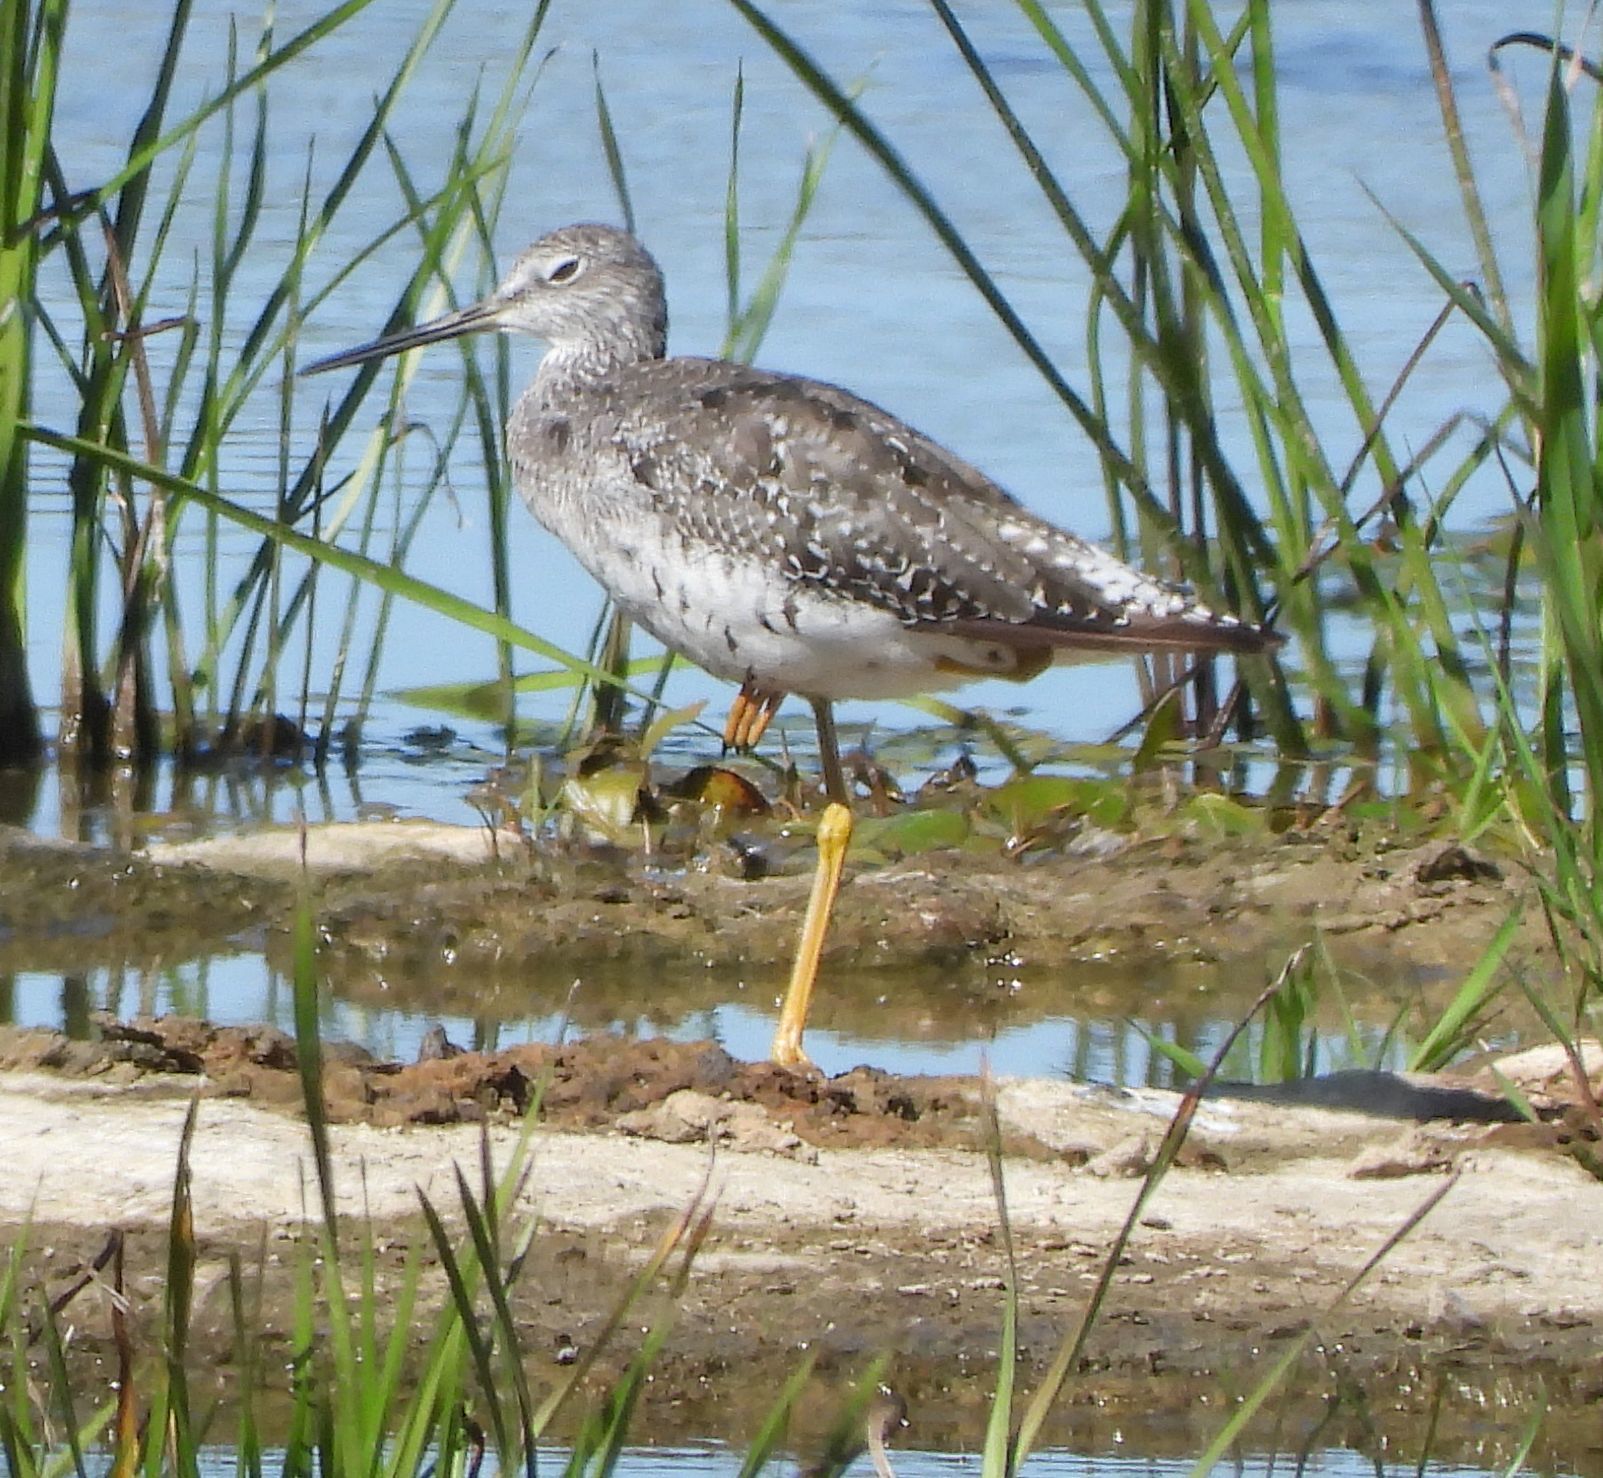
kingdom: Animalia
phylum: Chordata
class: Aves
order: Charadriiformes
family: Scolopacidae
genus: Tringa
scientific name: Tringa melanoleuca
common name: Greater yellowlegs
